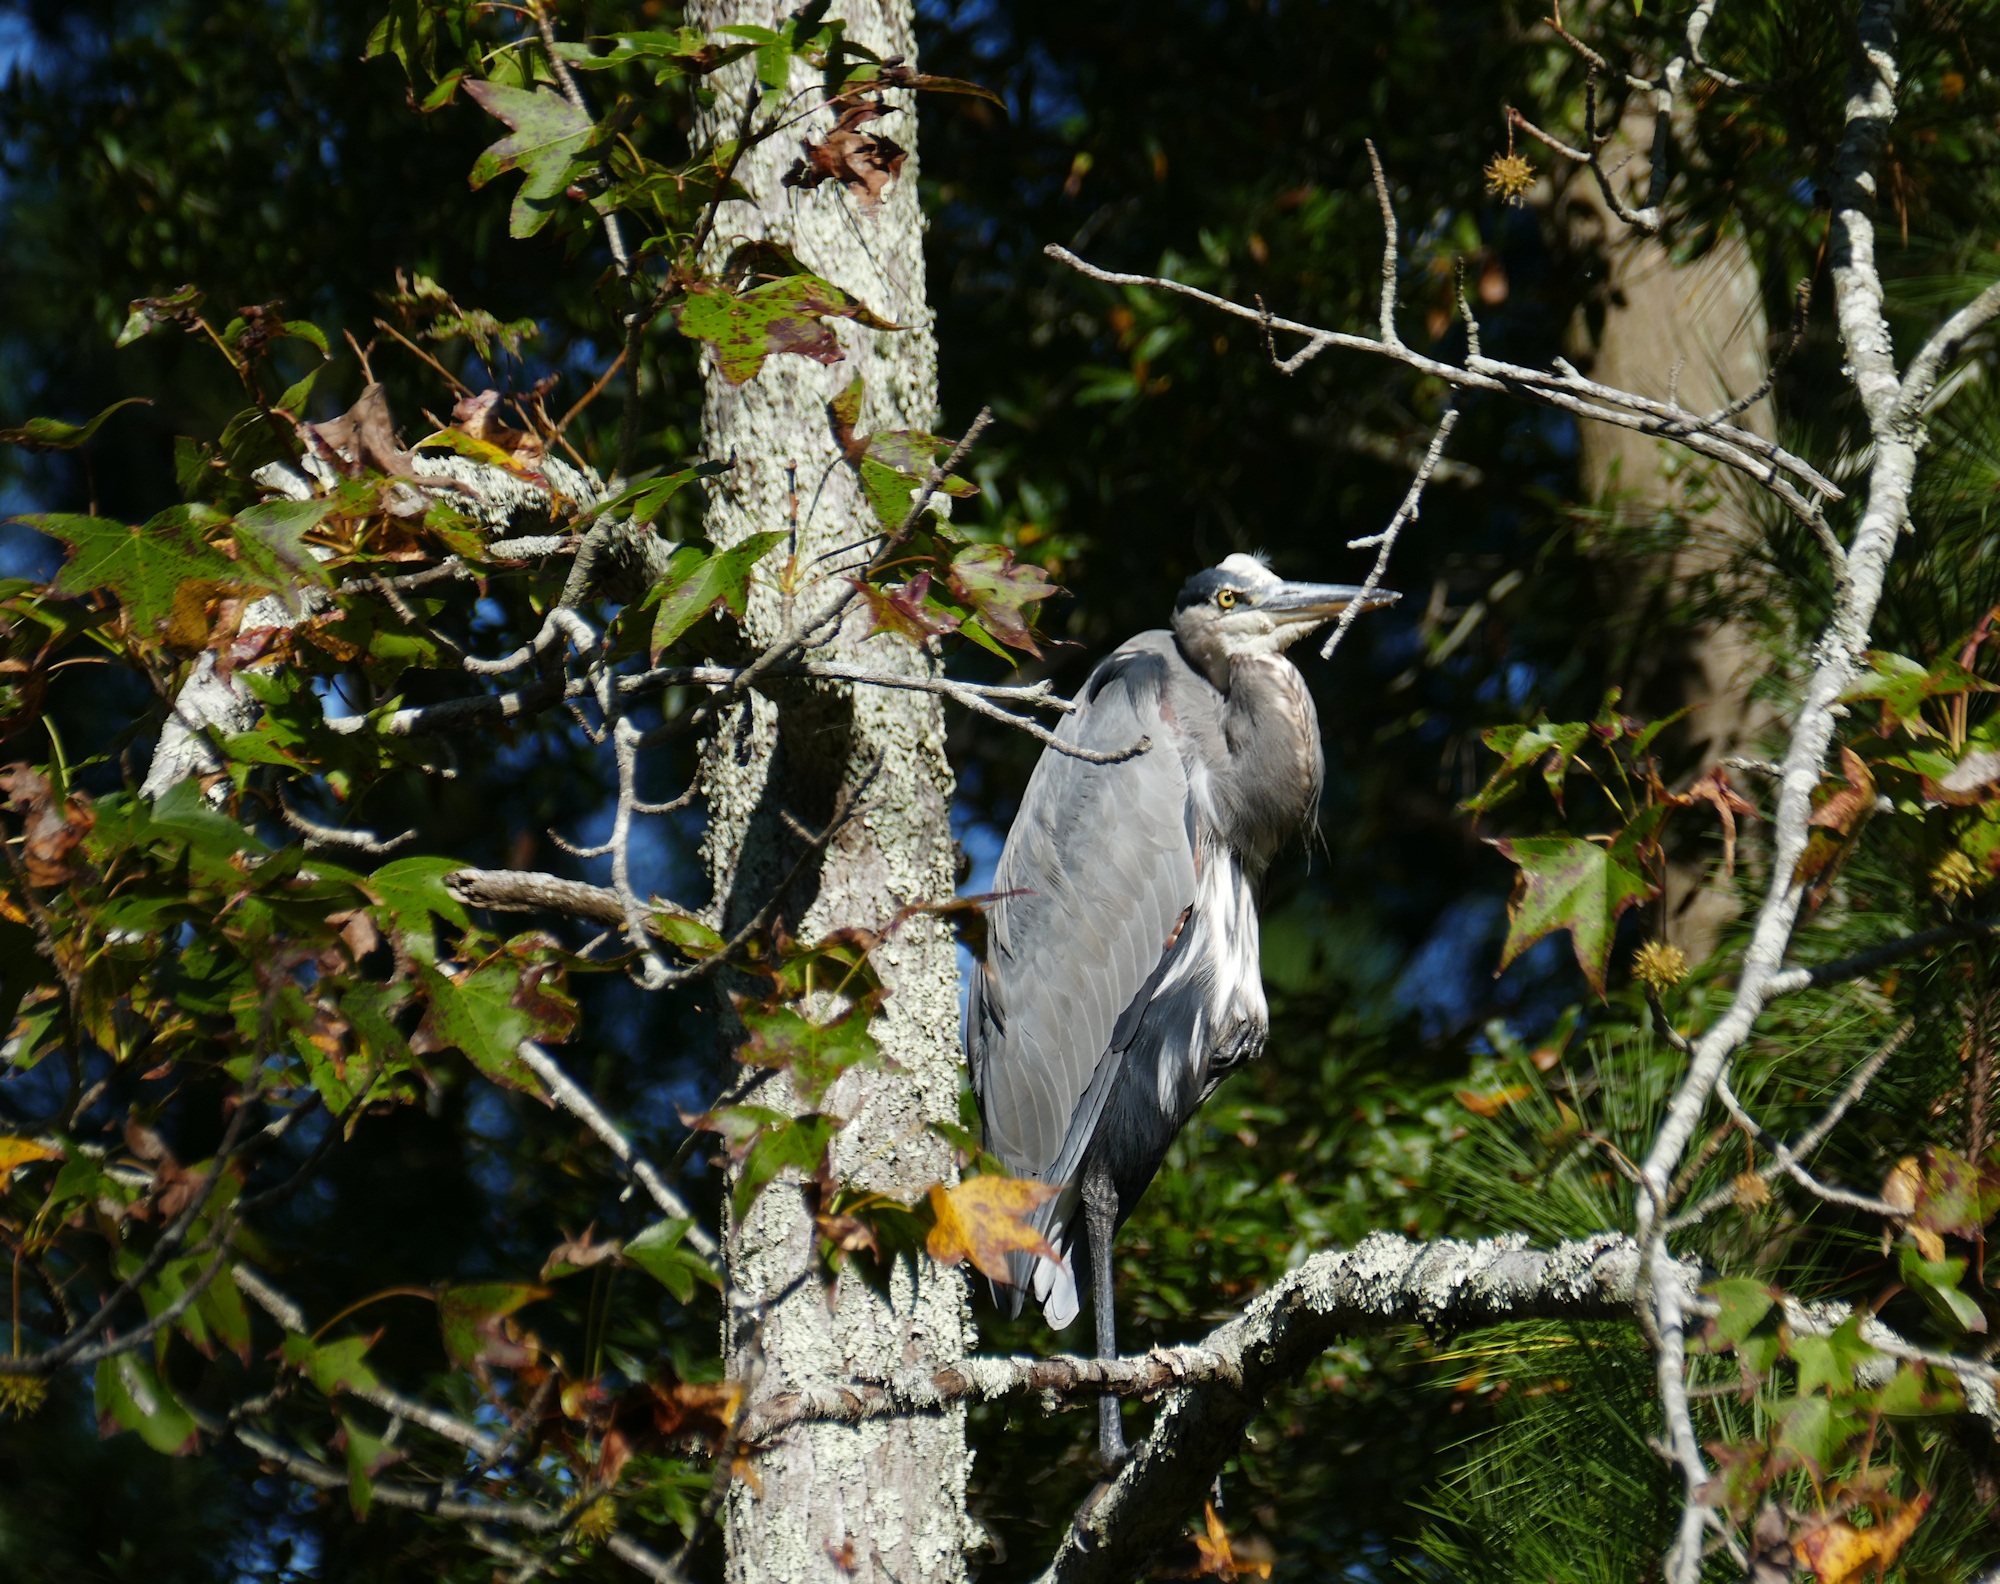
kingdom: Animalia
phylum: Chordata
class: Aves
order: Pelecaniformes
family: Ardeidae
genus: Ardea
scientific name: Ardea herodias
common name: Great blue heron
